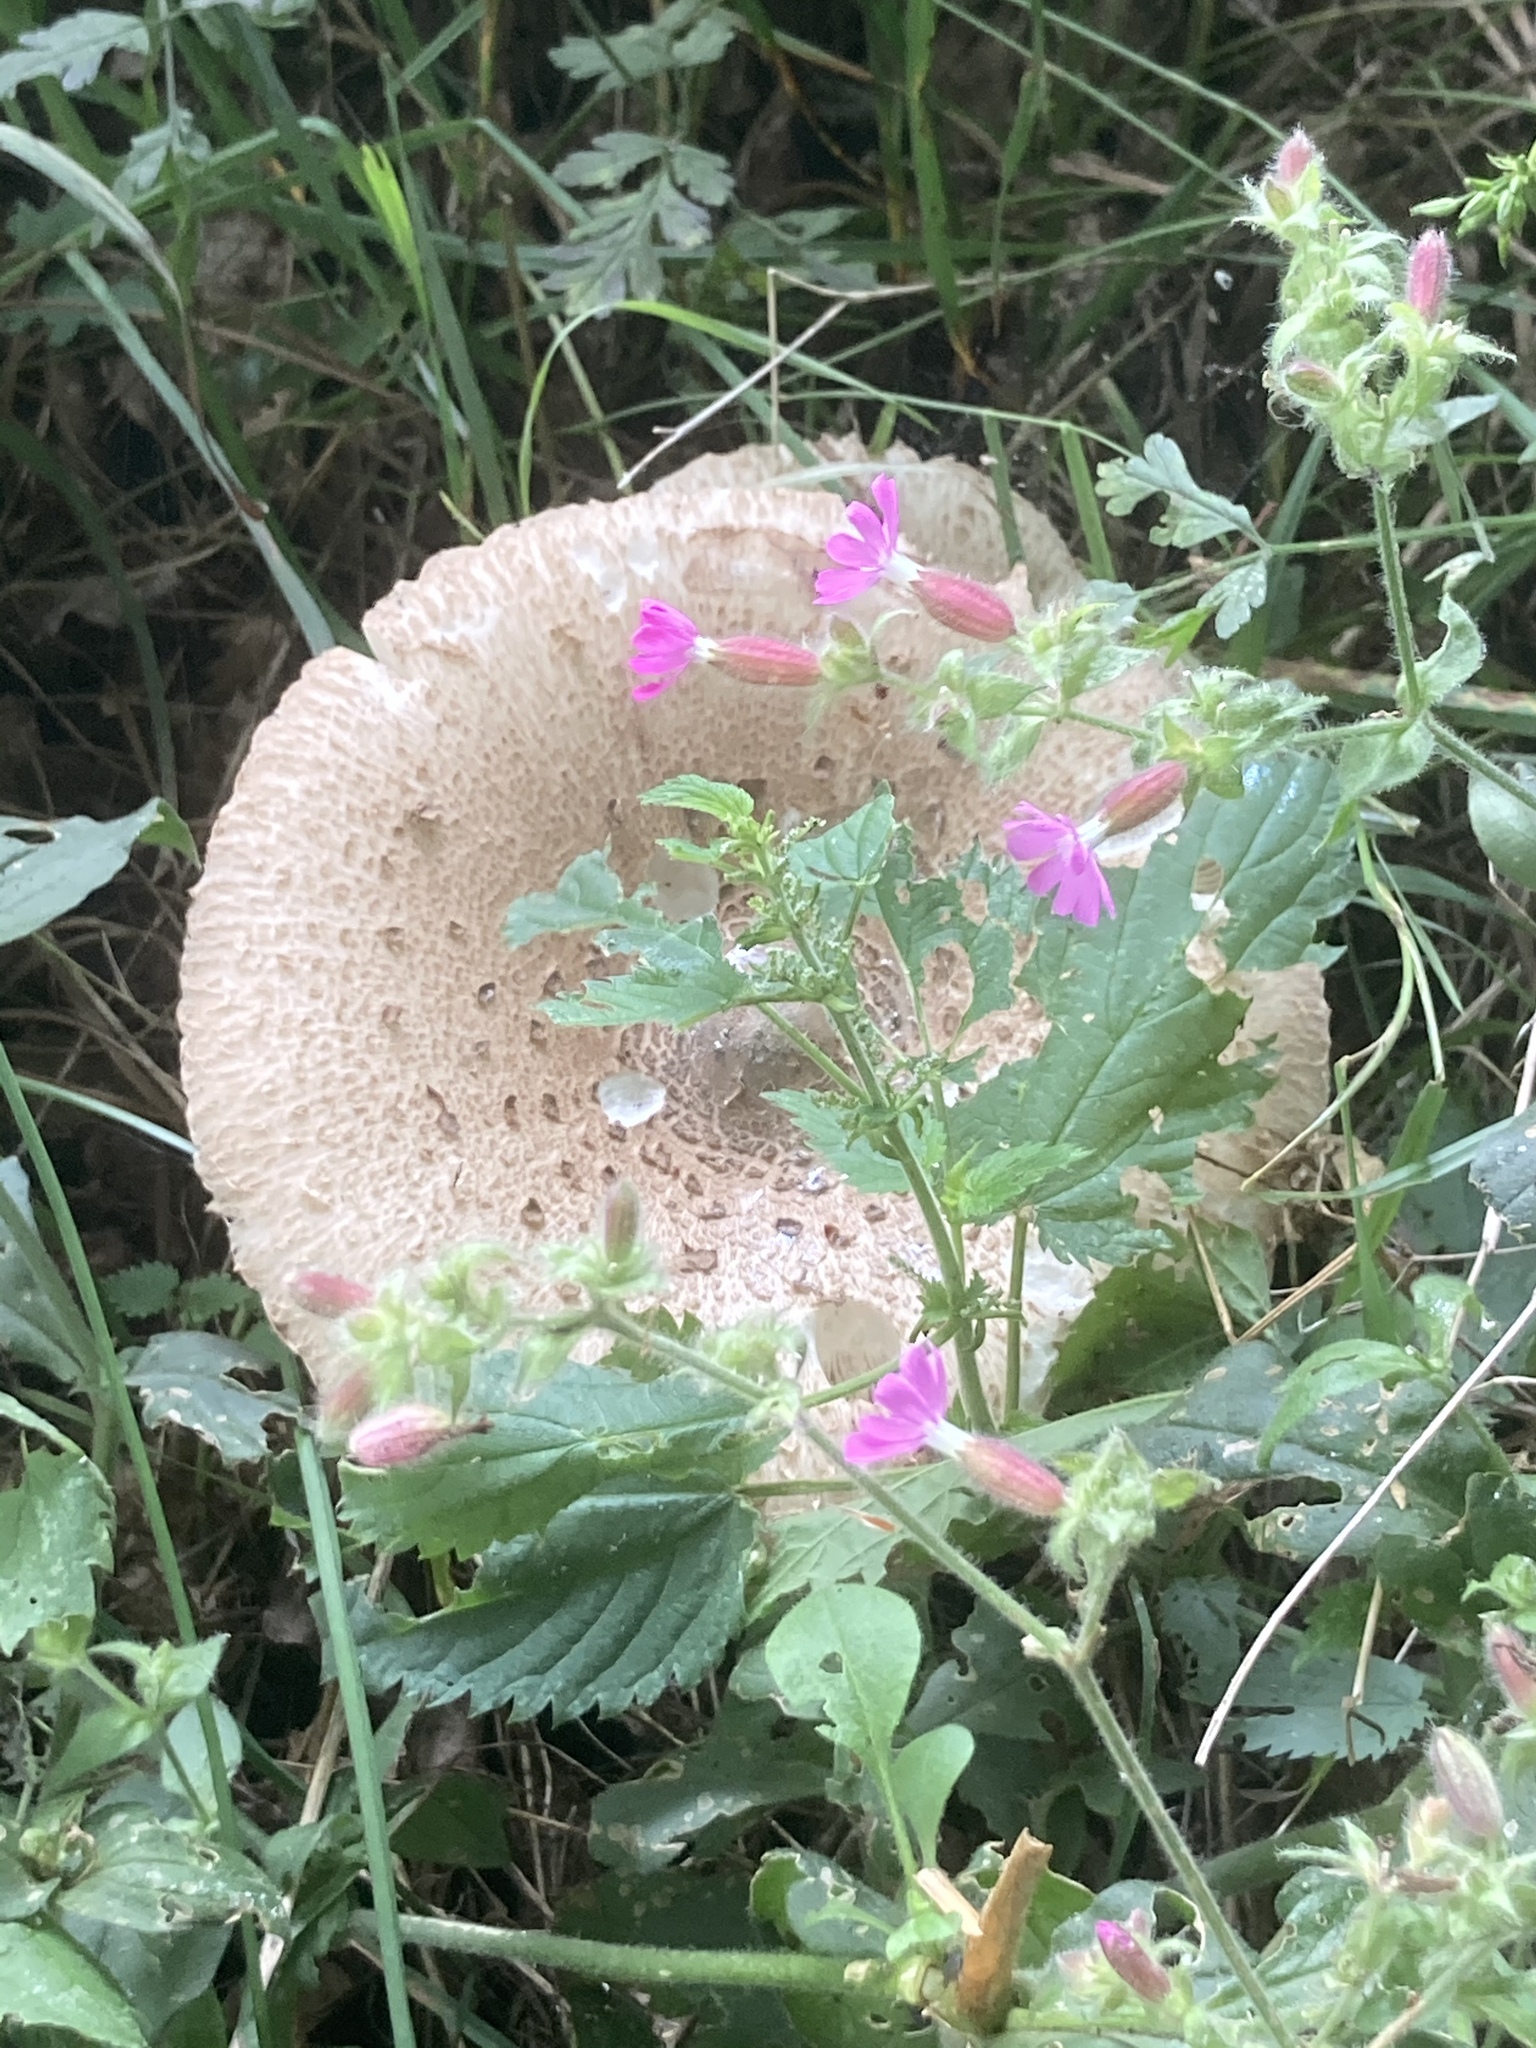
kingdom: Plantae
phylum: Tracheophyta
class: Magnoliopsida
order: Caryophyllales
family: Caryophyllaceae
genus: Silene
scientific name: Silene dioica
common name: Red campion
